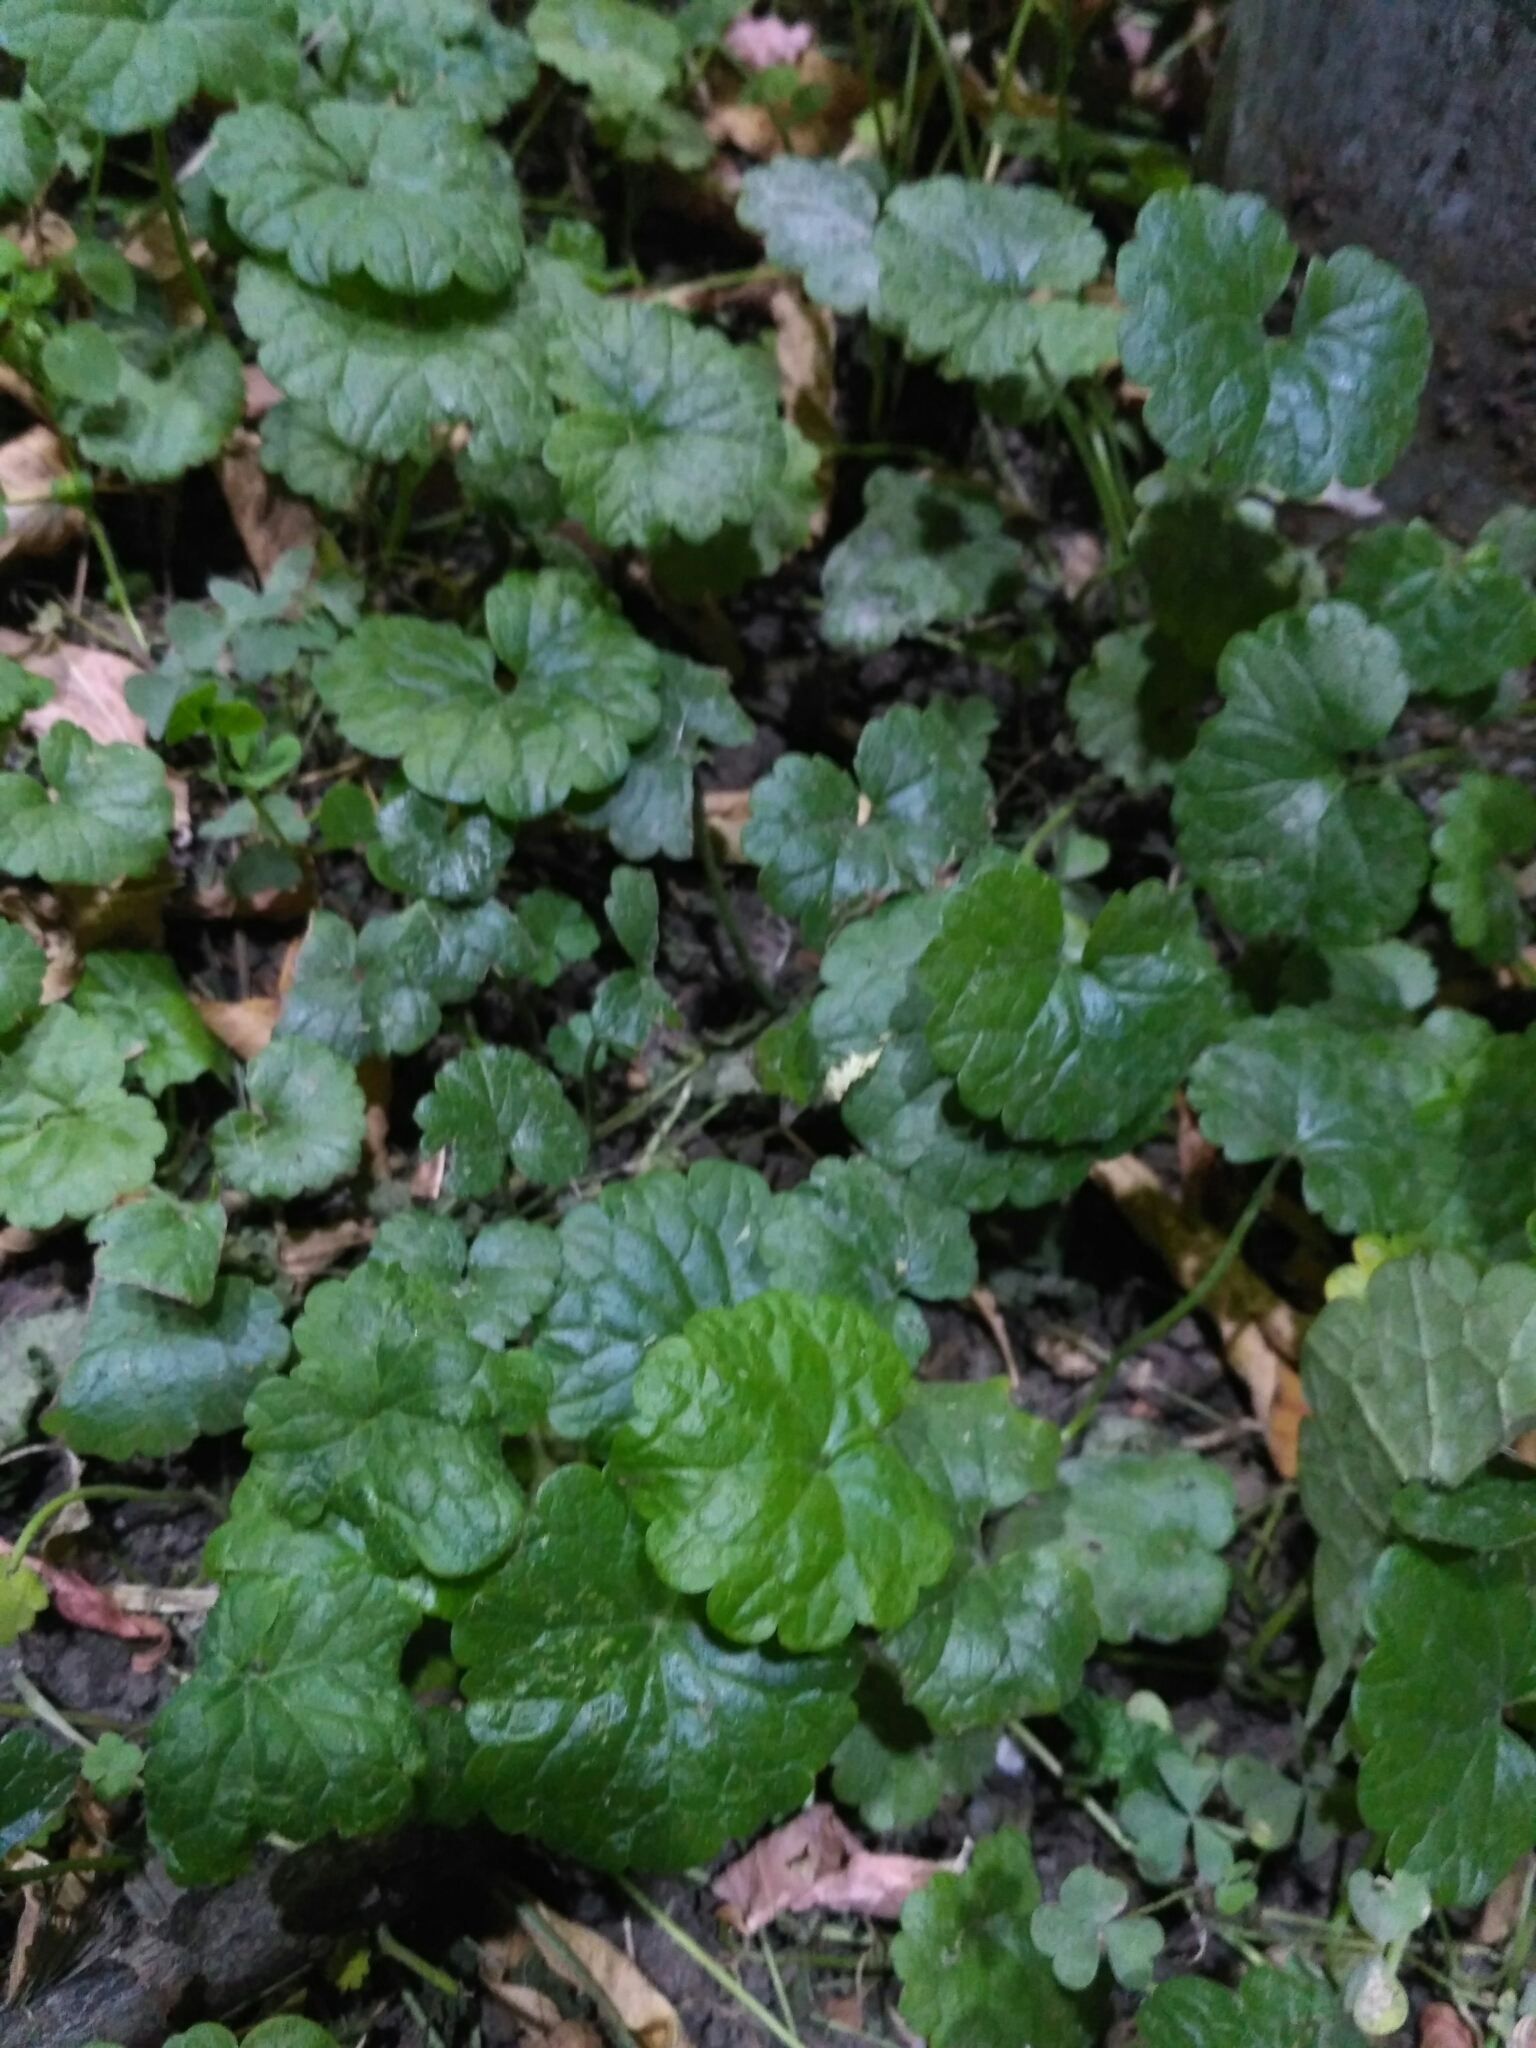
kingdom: Plantae
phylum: Tracheophyta
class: Magnoliopsida
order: Lamiales
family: Lamiaceae
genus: Glechoma
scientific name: Glechoma hederacea
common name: Ground ivy
